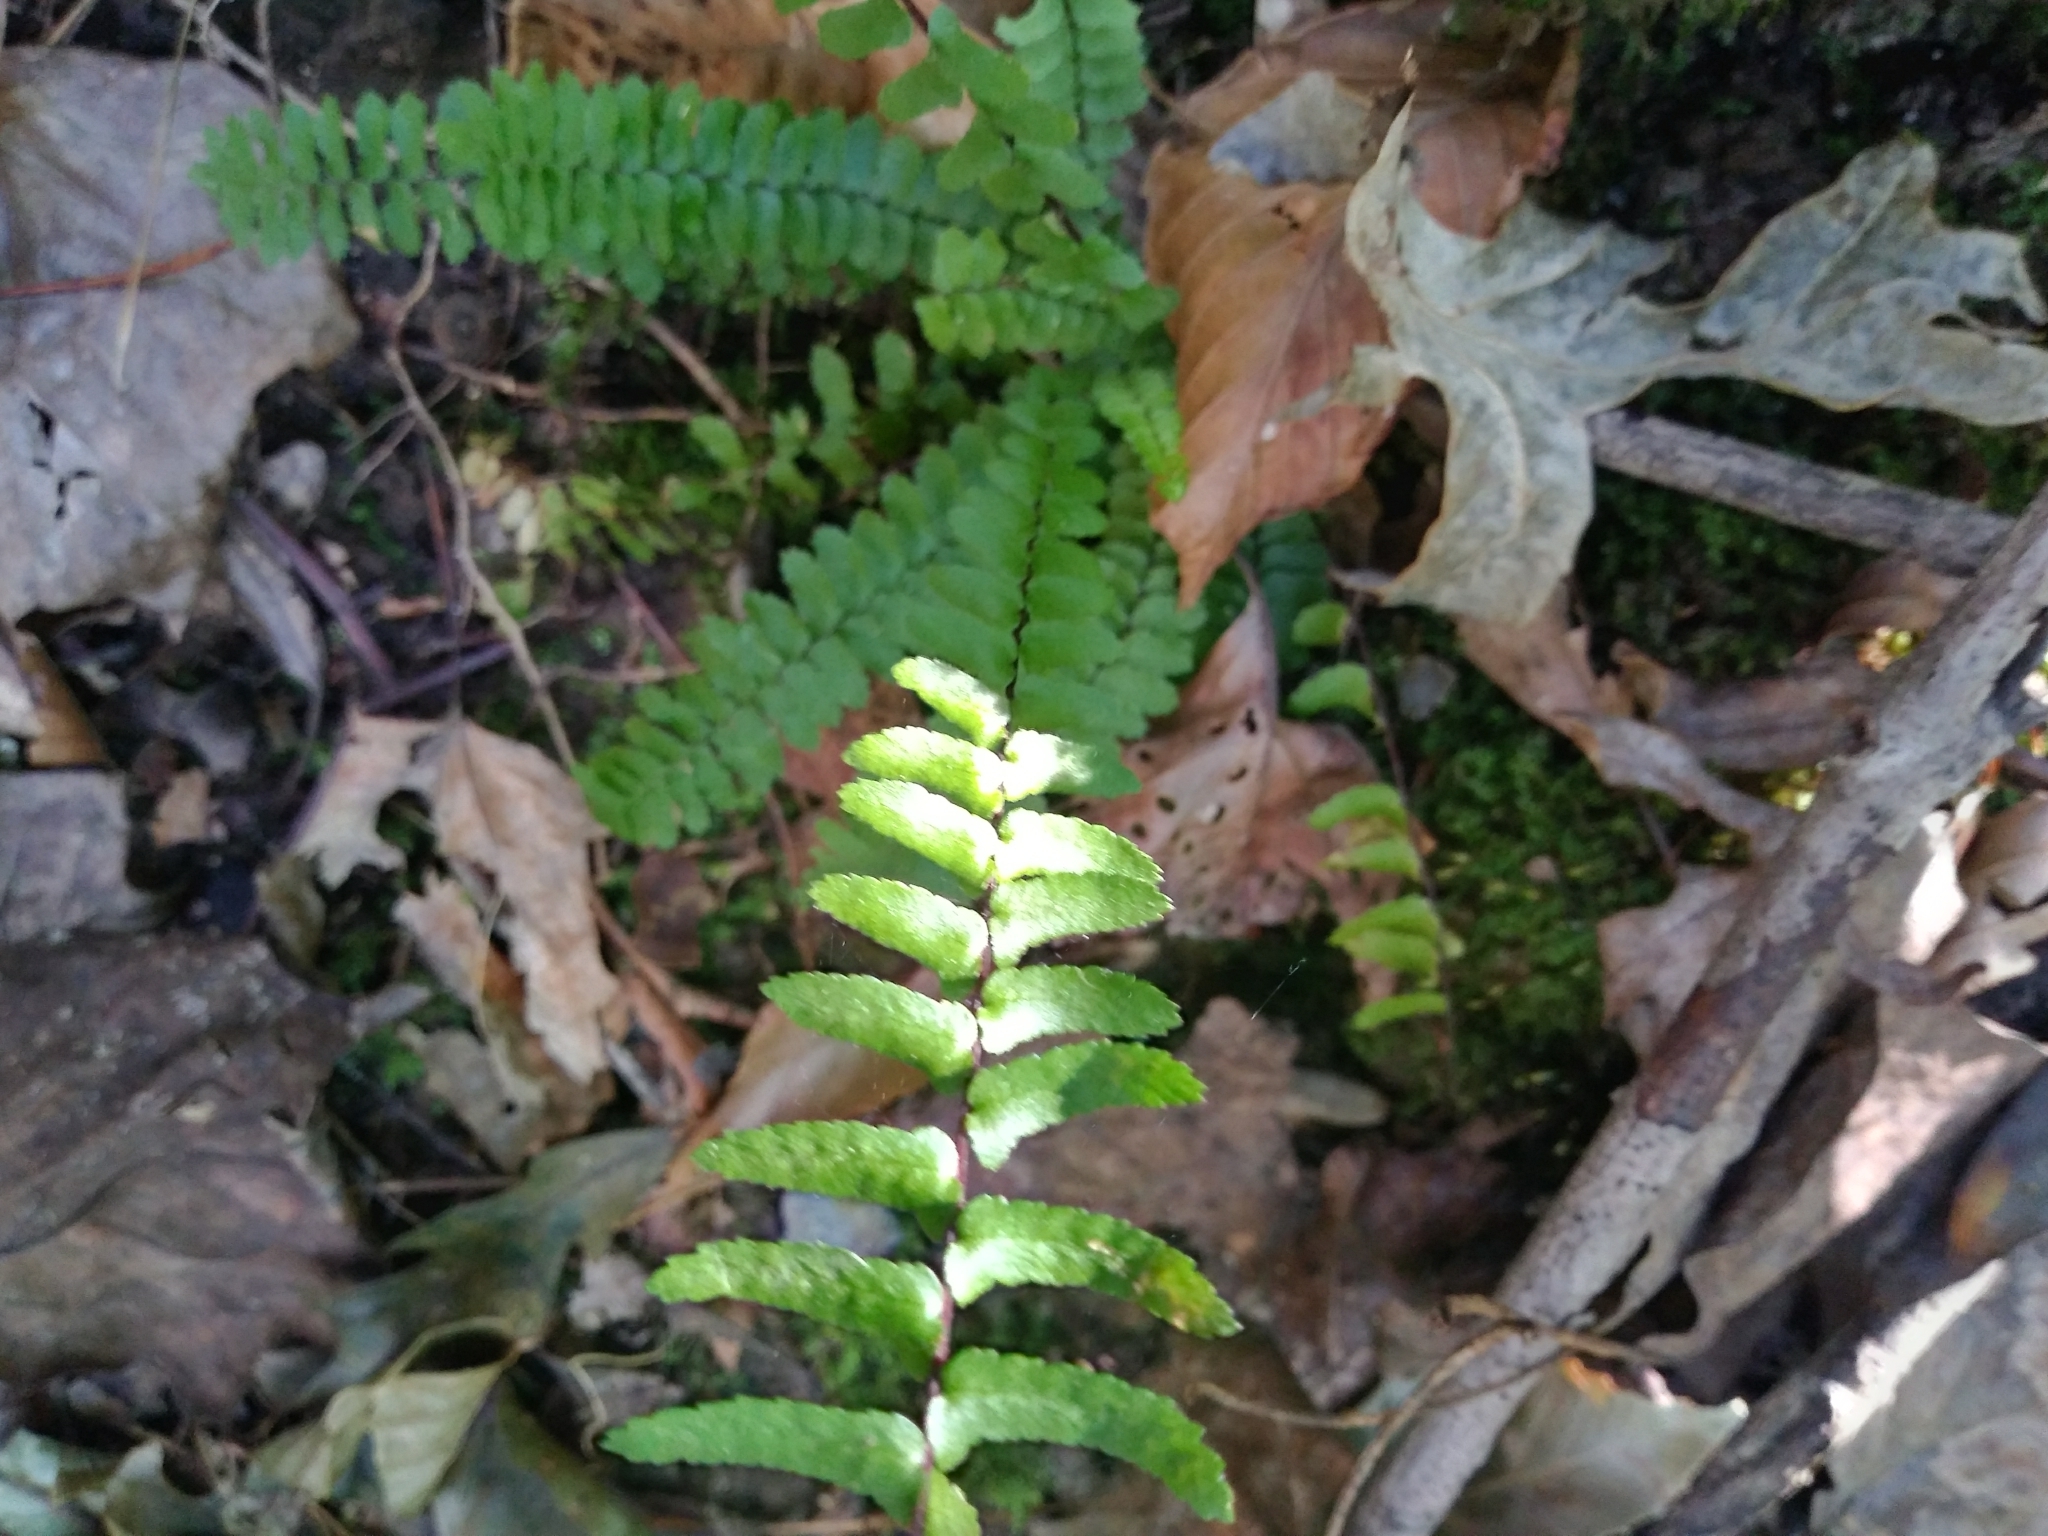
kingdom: Plantae
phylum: Tracheophyta
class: Polypodiopsida
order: Polypodiales
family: Aspleniaceae
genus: Asplenium
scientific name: Asplenium platyneuron
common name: Ebony spleenwort
